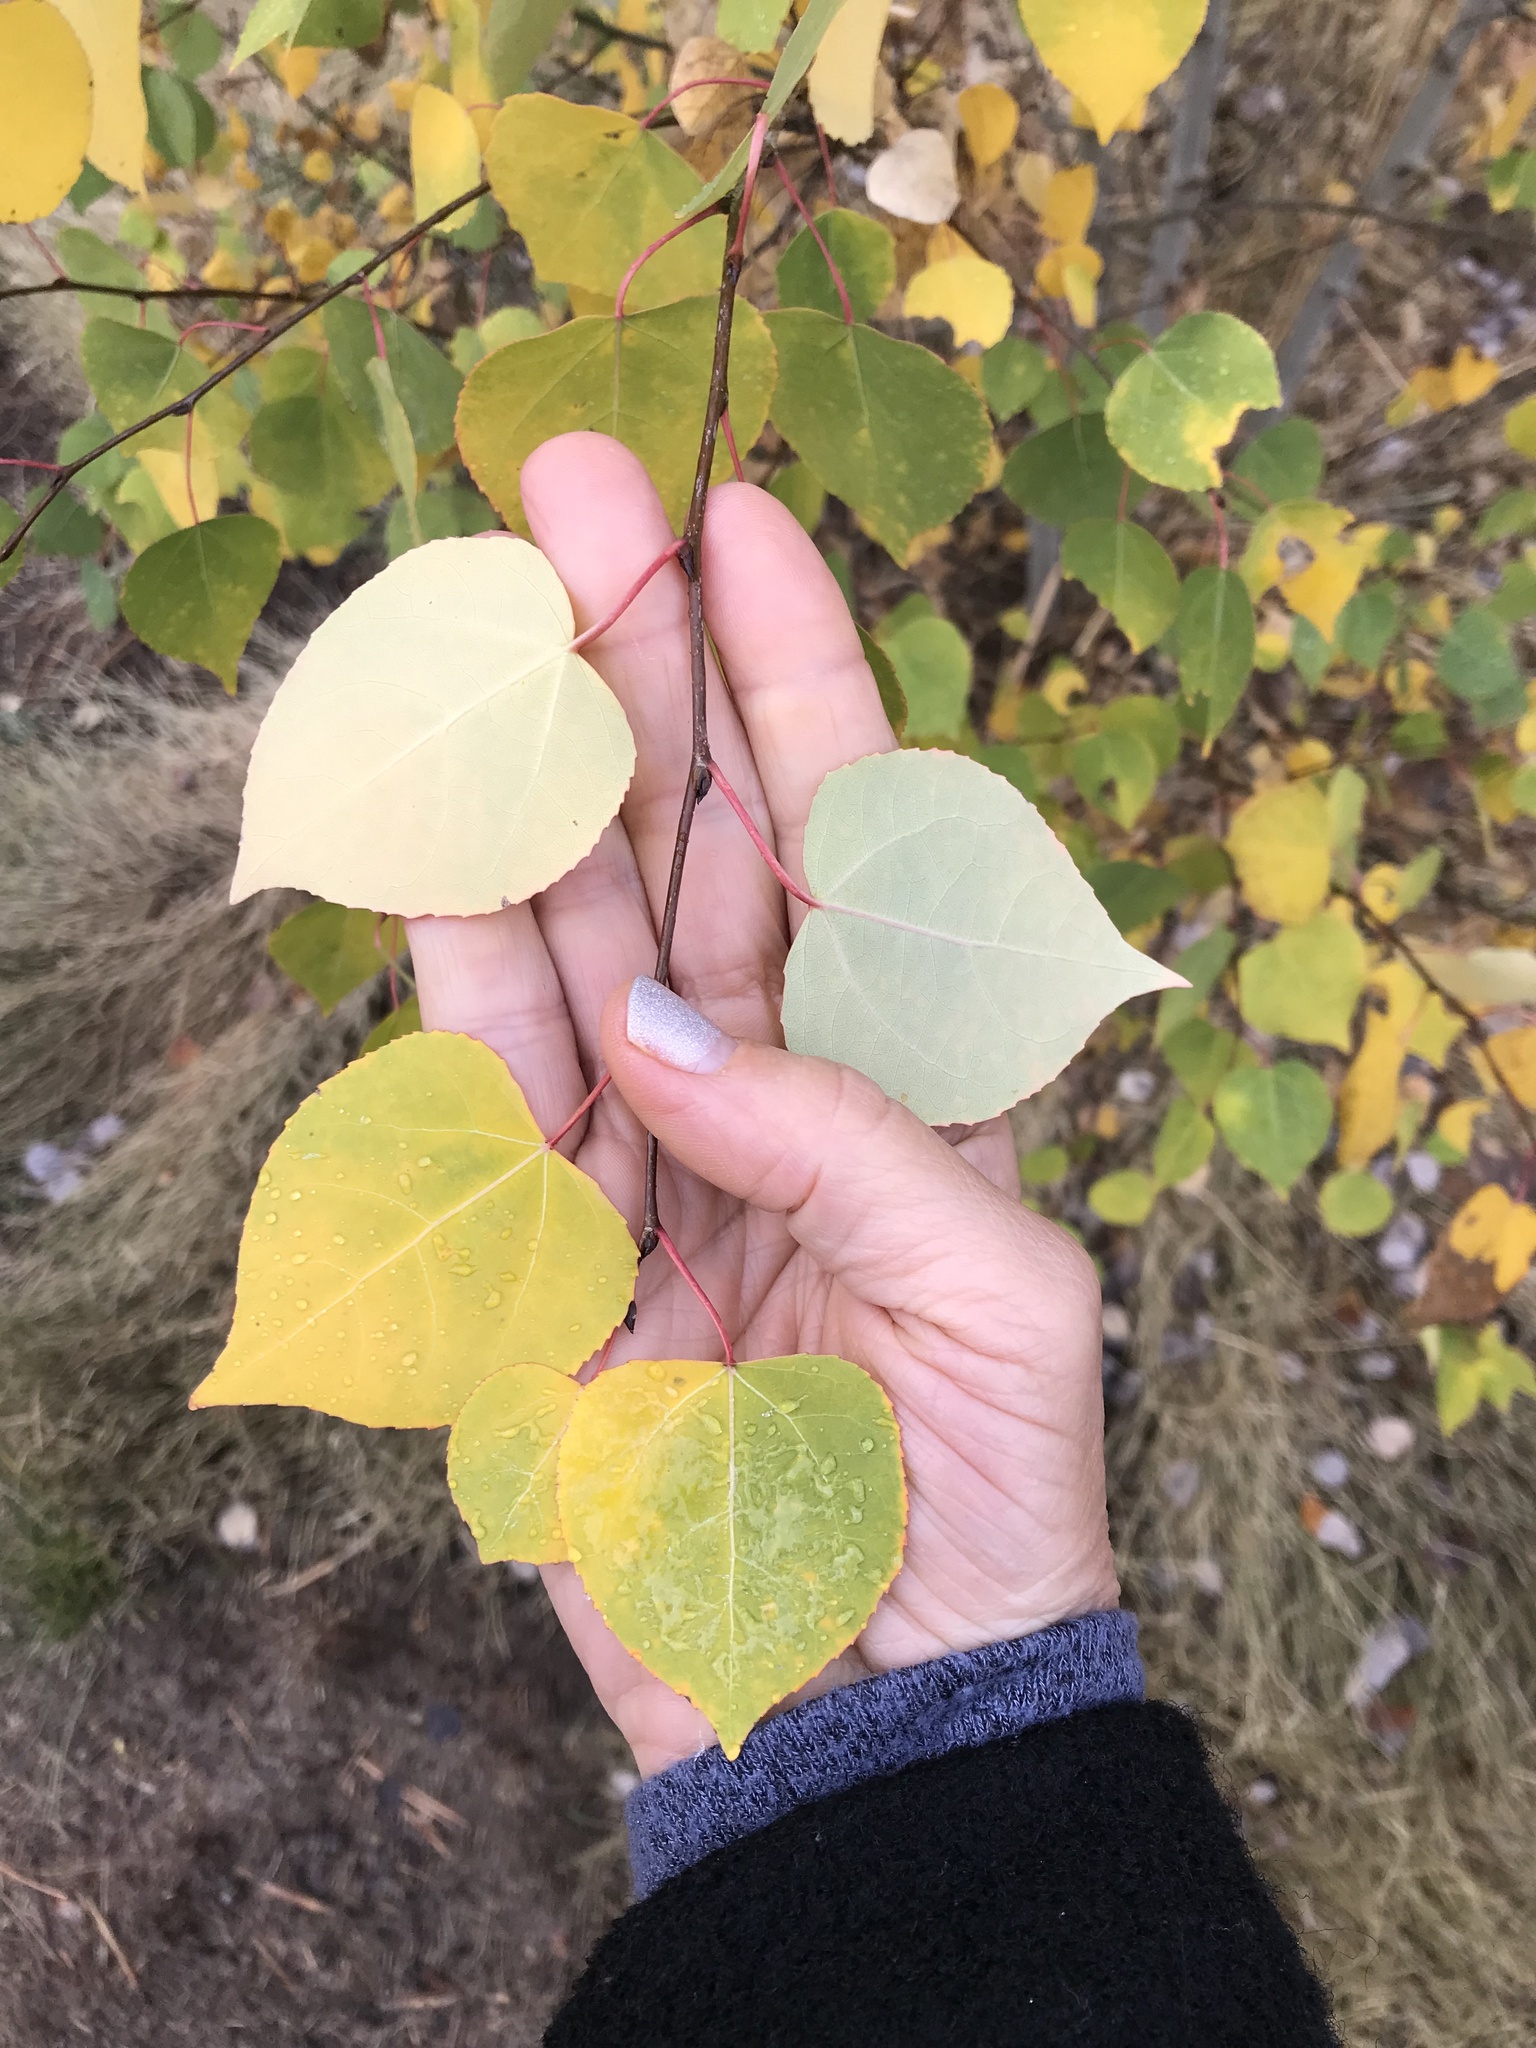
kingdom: Plantae
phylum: Tracheophyta
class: Magnoliopsida
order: Malpighiales
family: Salicaceae
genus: Populus
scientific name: Populus tremuloides
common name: Quaking aspen
